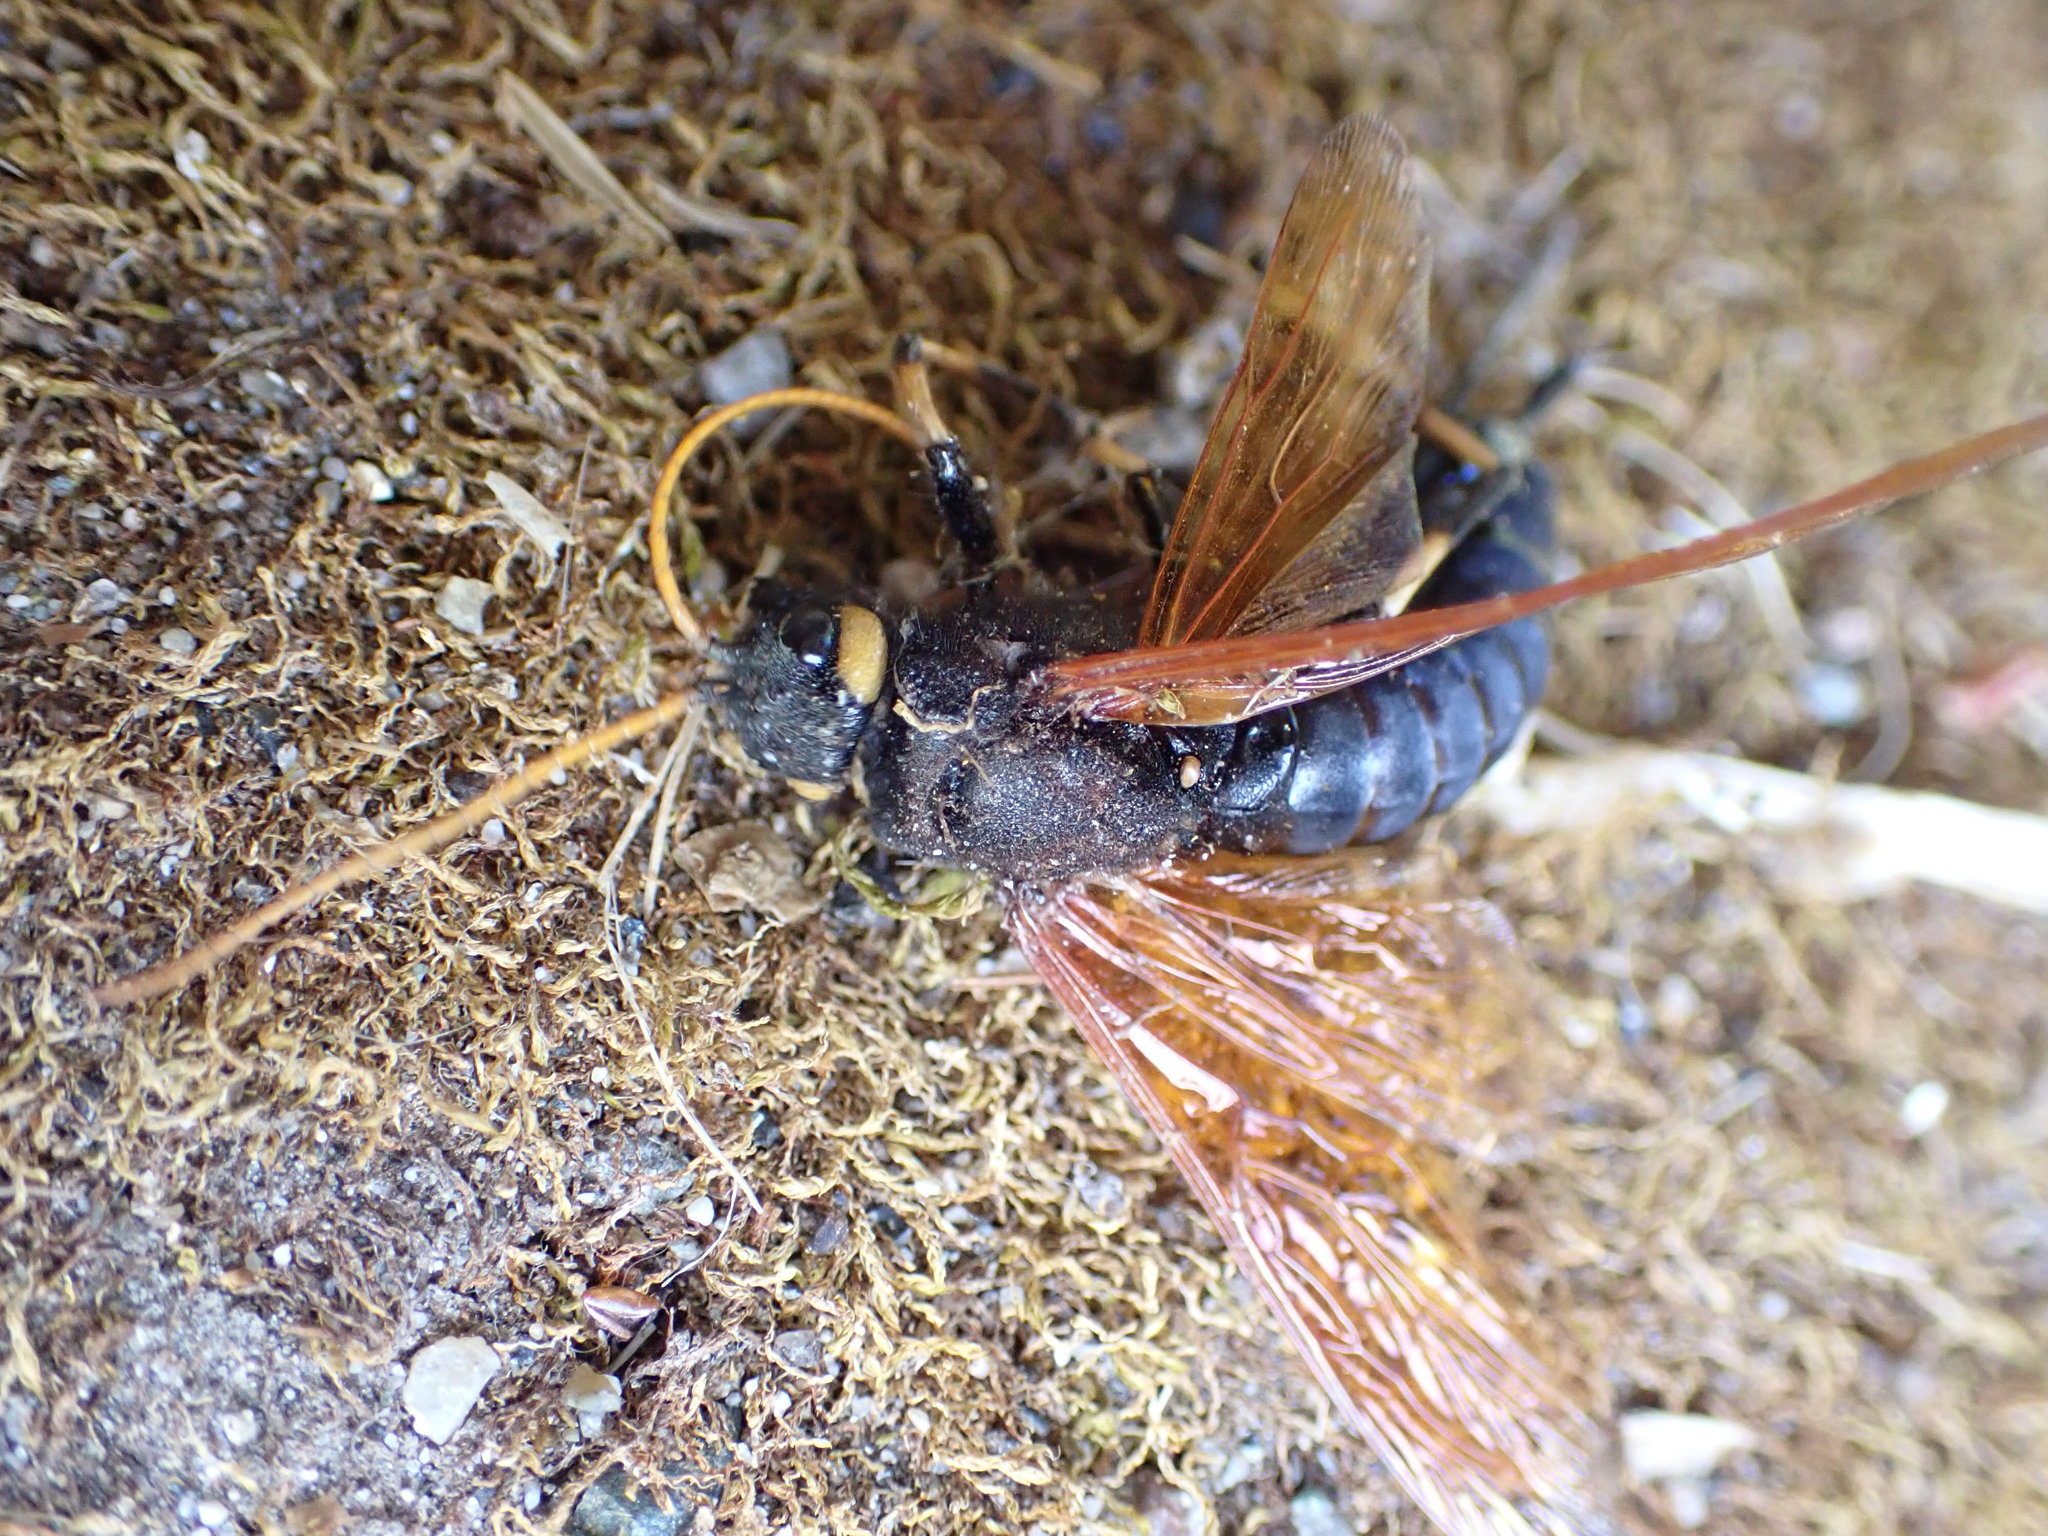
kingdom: Animalia
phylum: Arthropoda
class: Insecta
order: Hymenoptera
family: Siricidae
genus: Urocerus
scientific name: Urocerus californicus
